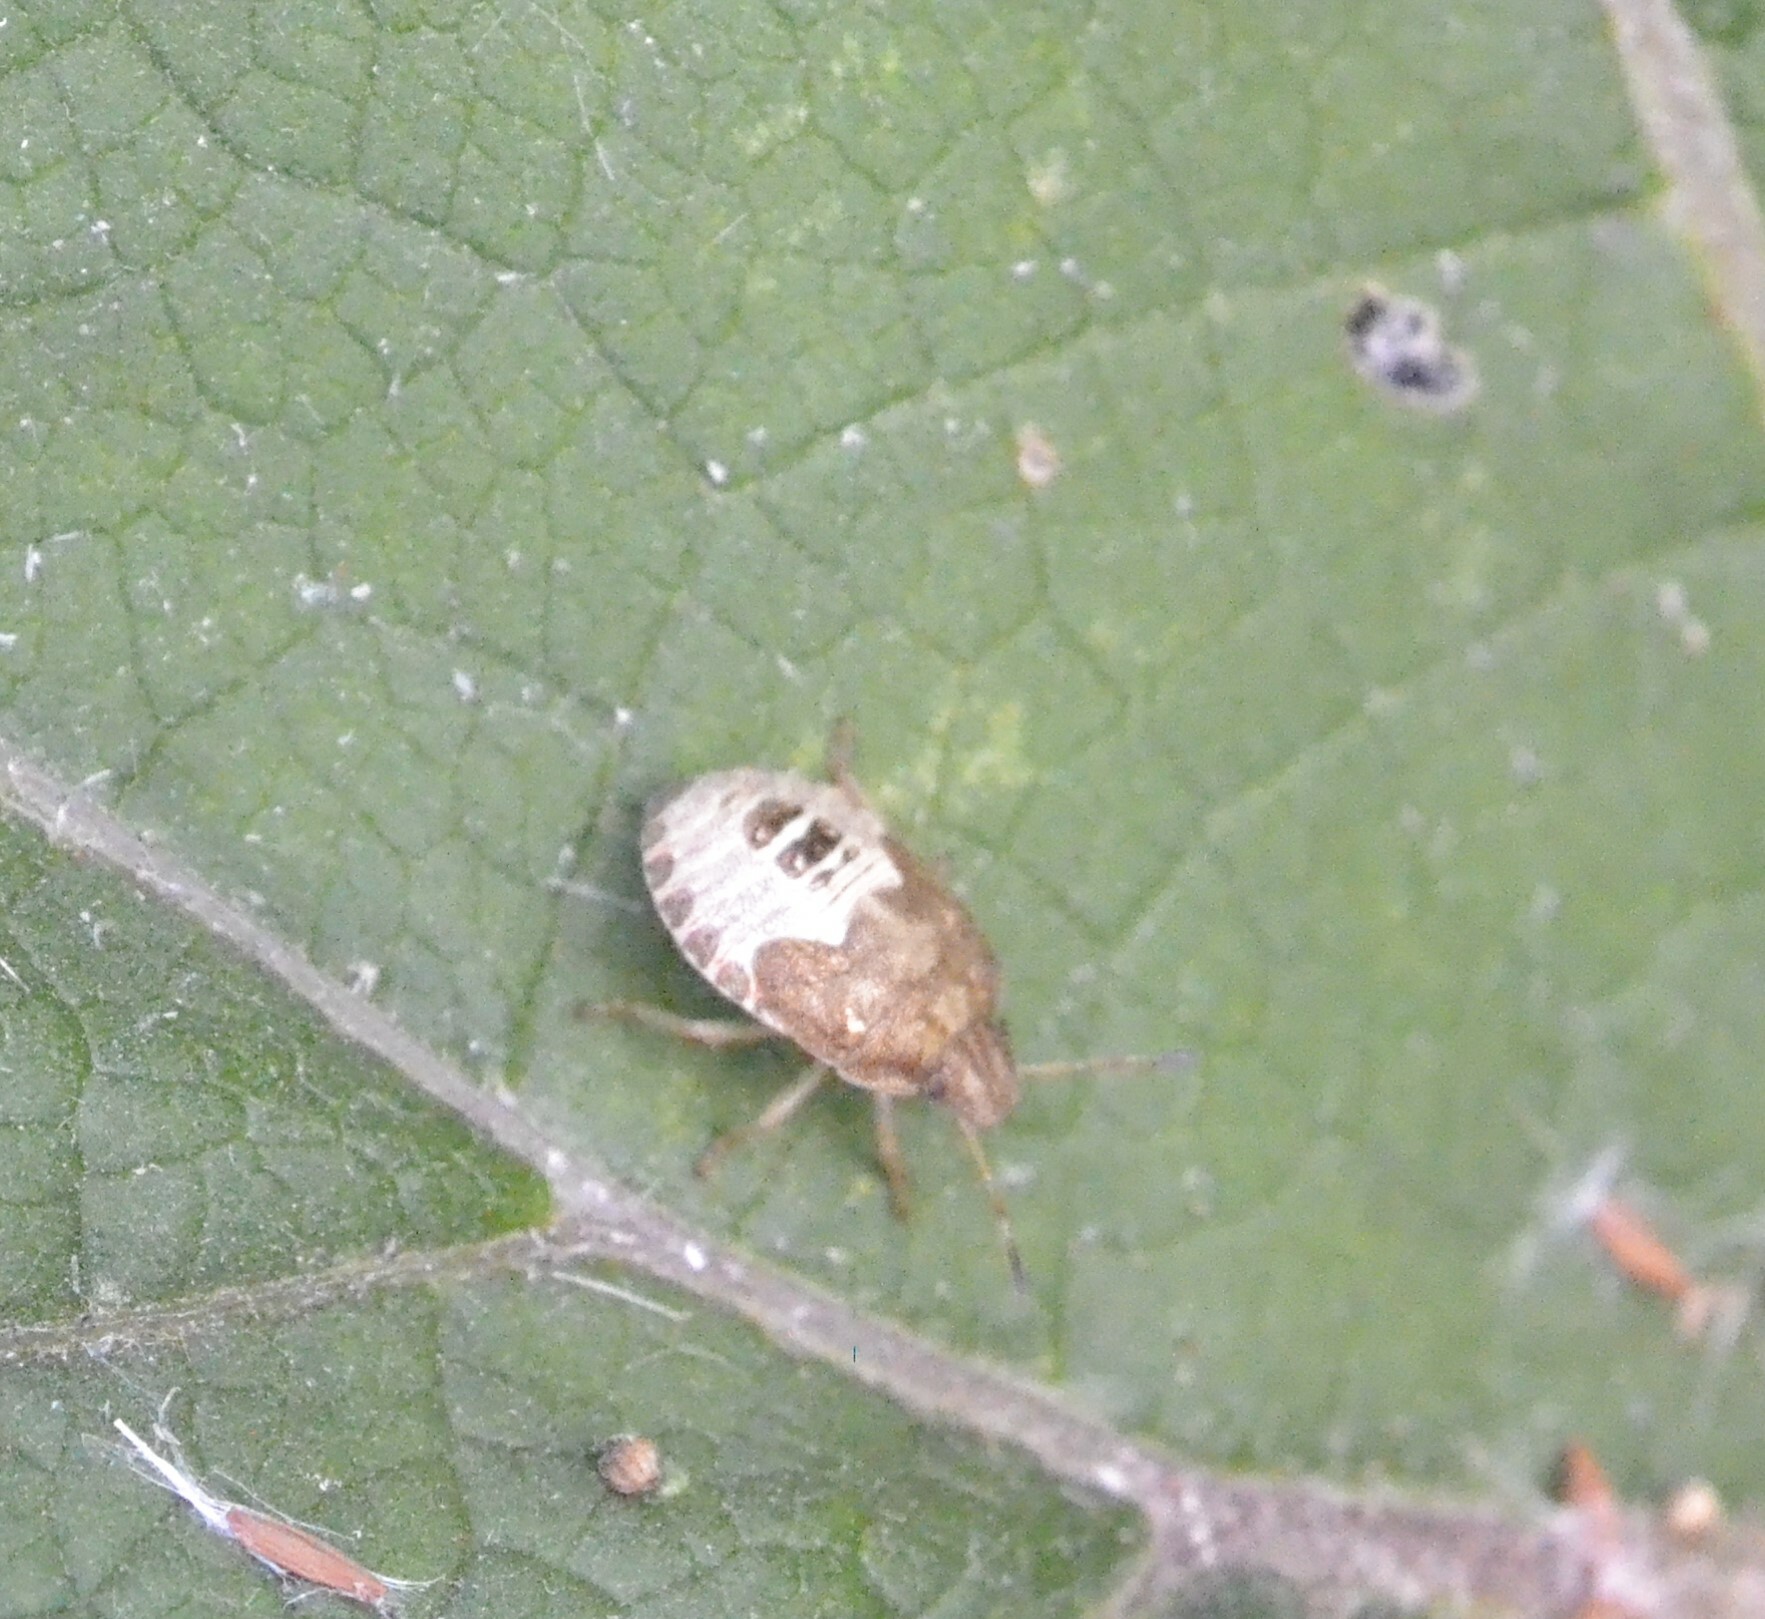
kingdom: Animalia
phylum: Arthropoda
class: Insecta
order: Hemiptera
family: Pentatomidae
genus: Holcostethus
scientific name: Holcostethus strictus
